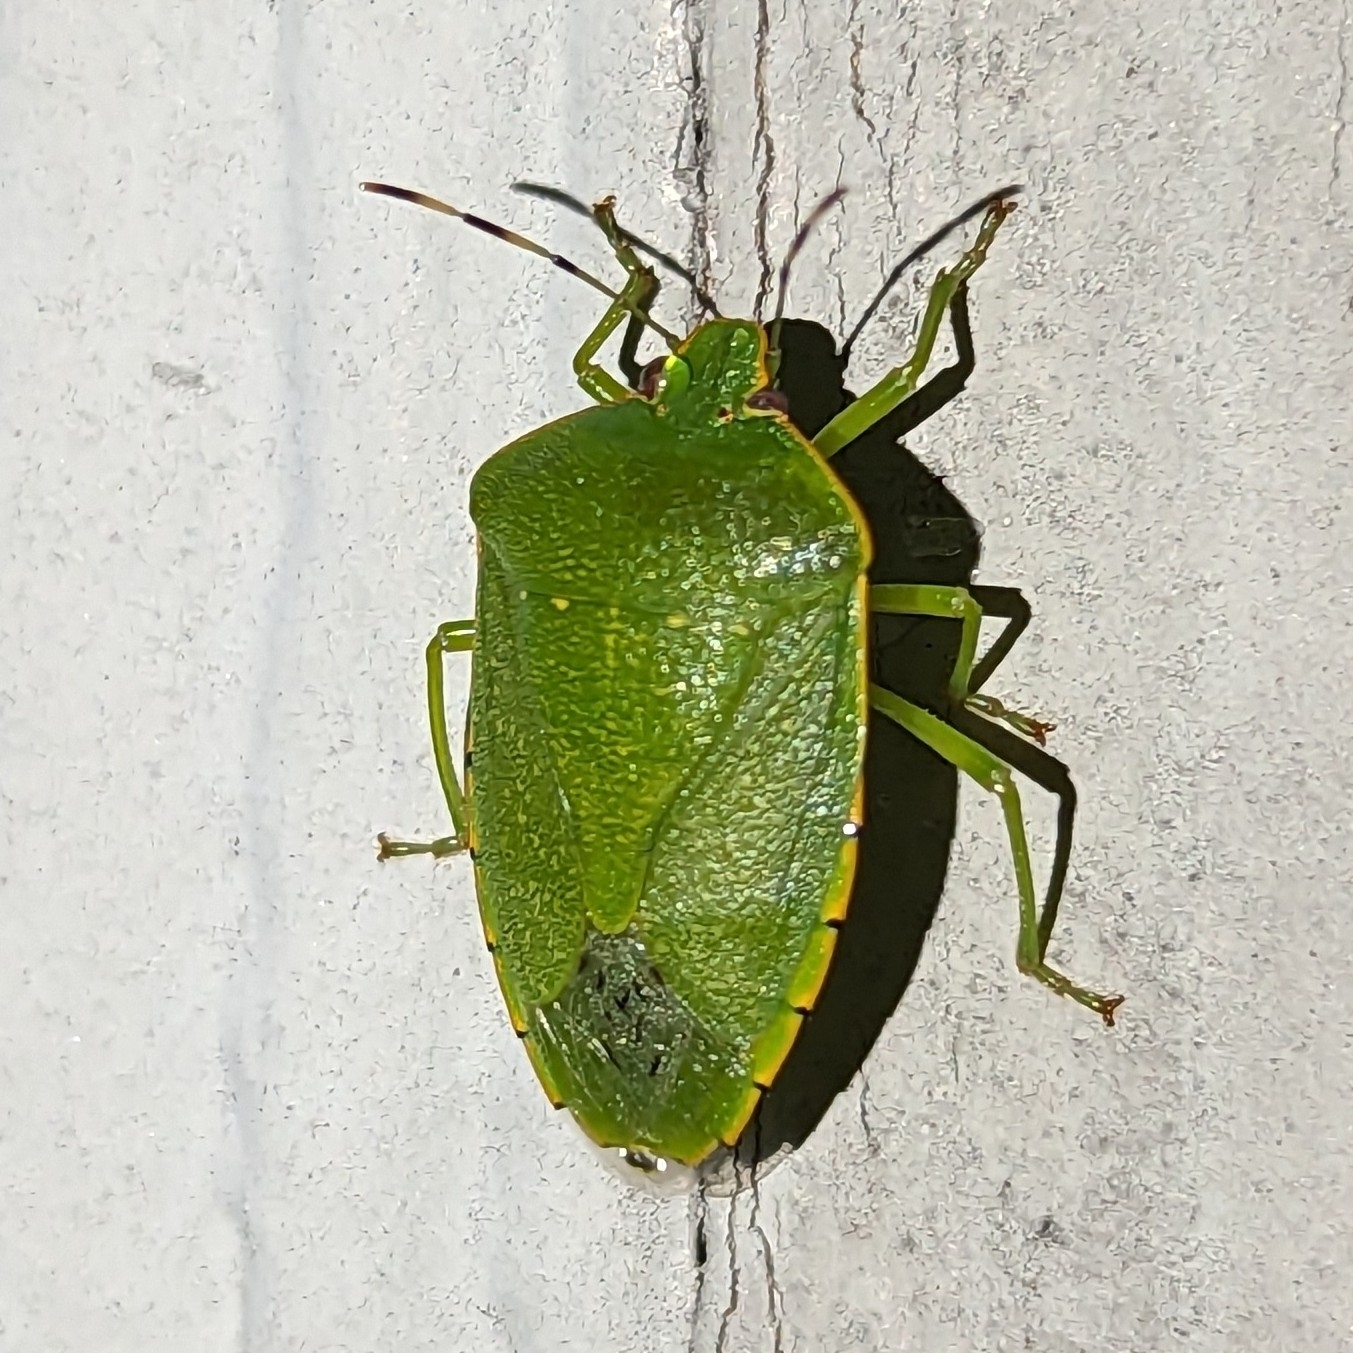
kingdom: Animalia
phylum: Arthropoda
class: Insecta
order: Hemiptera
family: Pentatomidae
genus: Chinavia
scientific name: Chinavia hilaris
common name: Green stink bug
